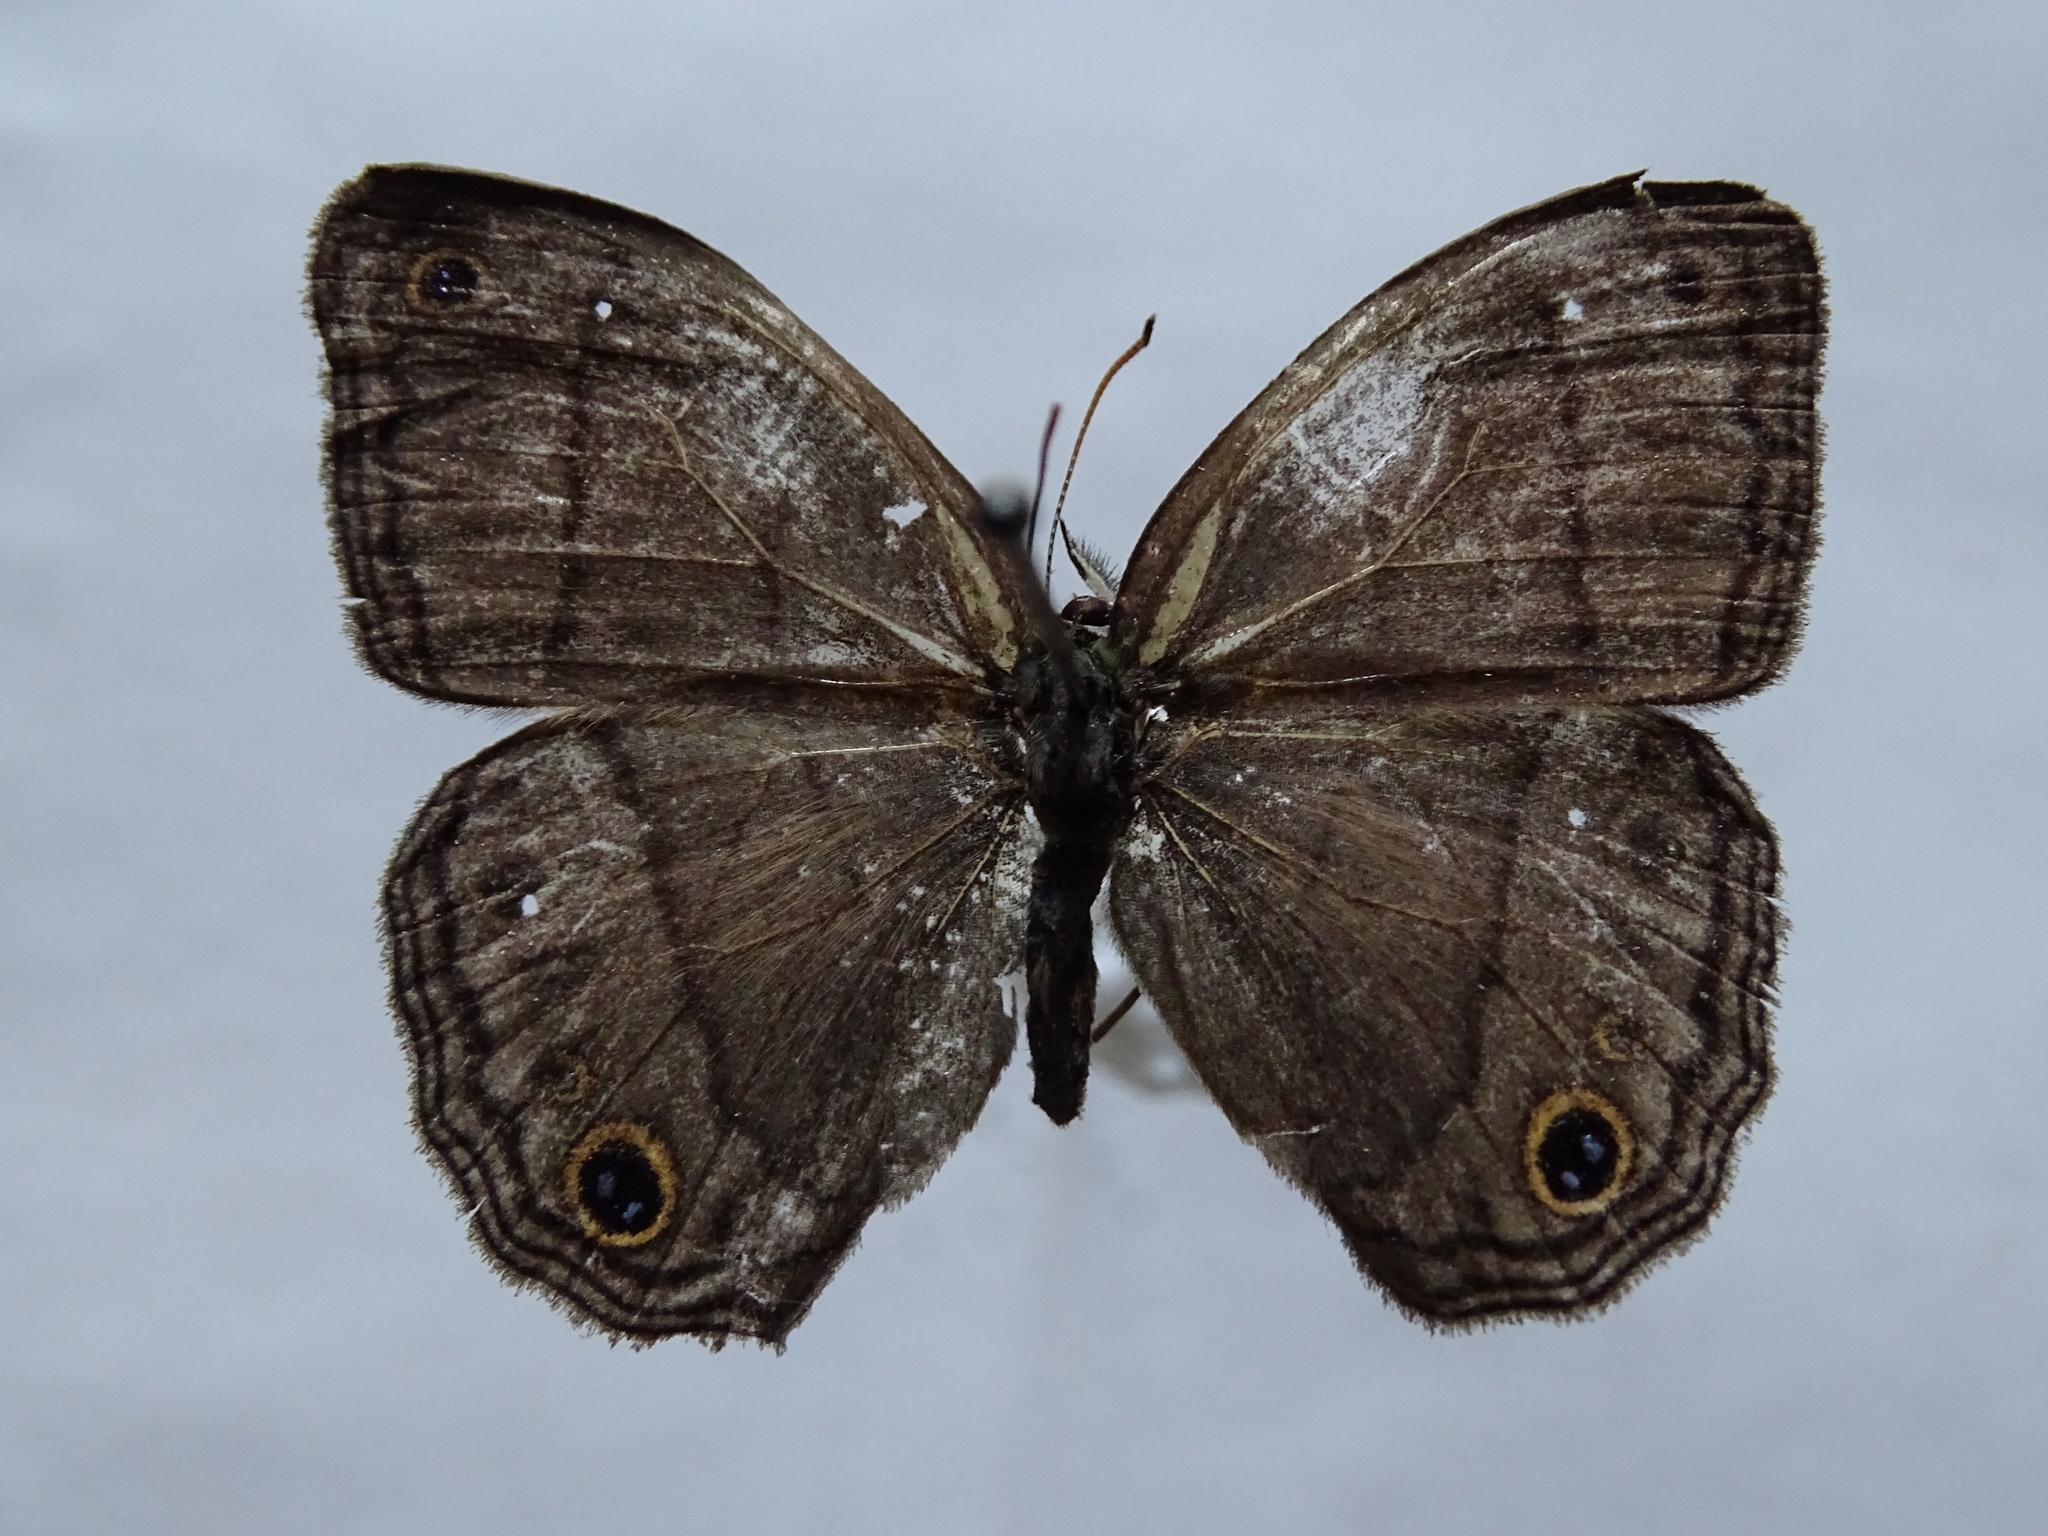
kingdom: Animalia
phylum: Arthropoda
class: Insecta
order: Lepidoptera
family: Nymphalidae
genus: Euptychia
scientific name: Euptychia Cissia pompilia
